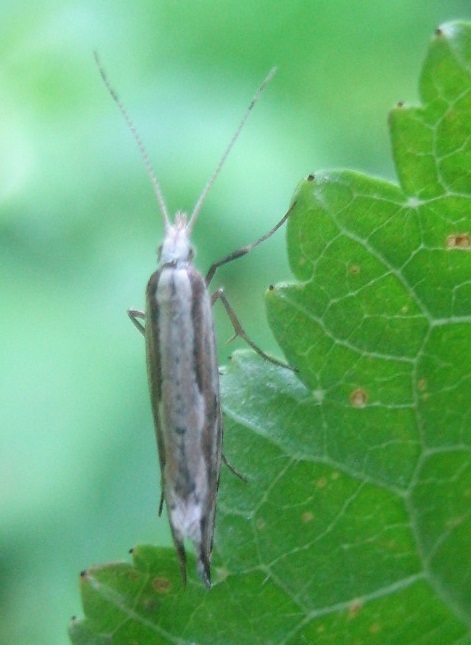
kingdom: Animalia
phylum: Arthropoda
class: Insecta
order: Lepidoptera
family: Plutellidae
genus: Plutella
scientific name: Plutella xylostella
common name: Diamond-back moth
